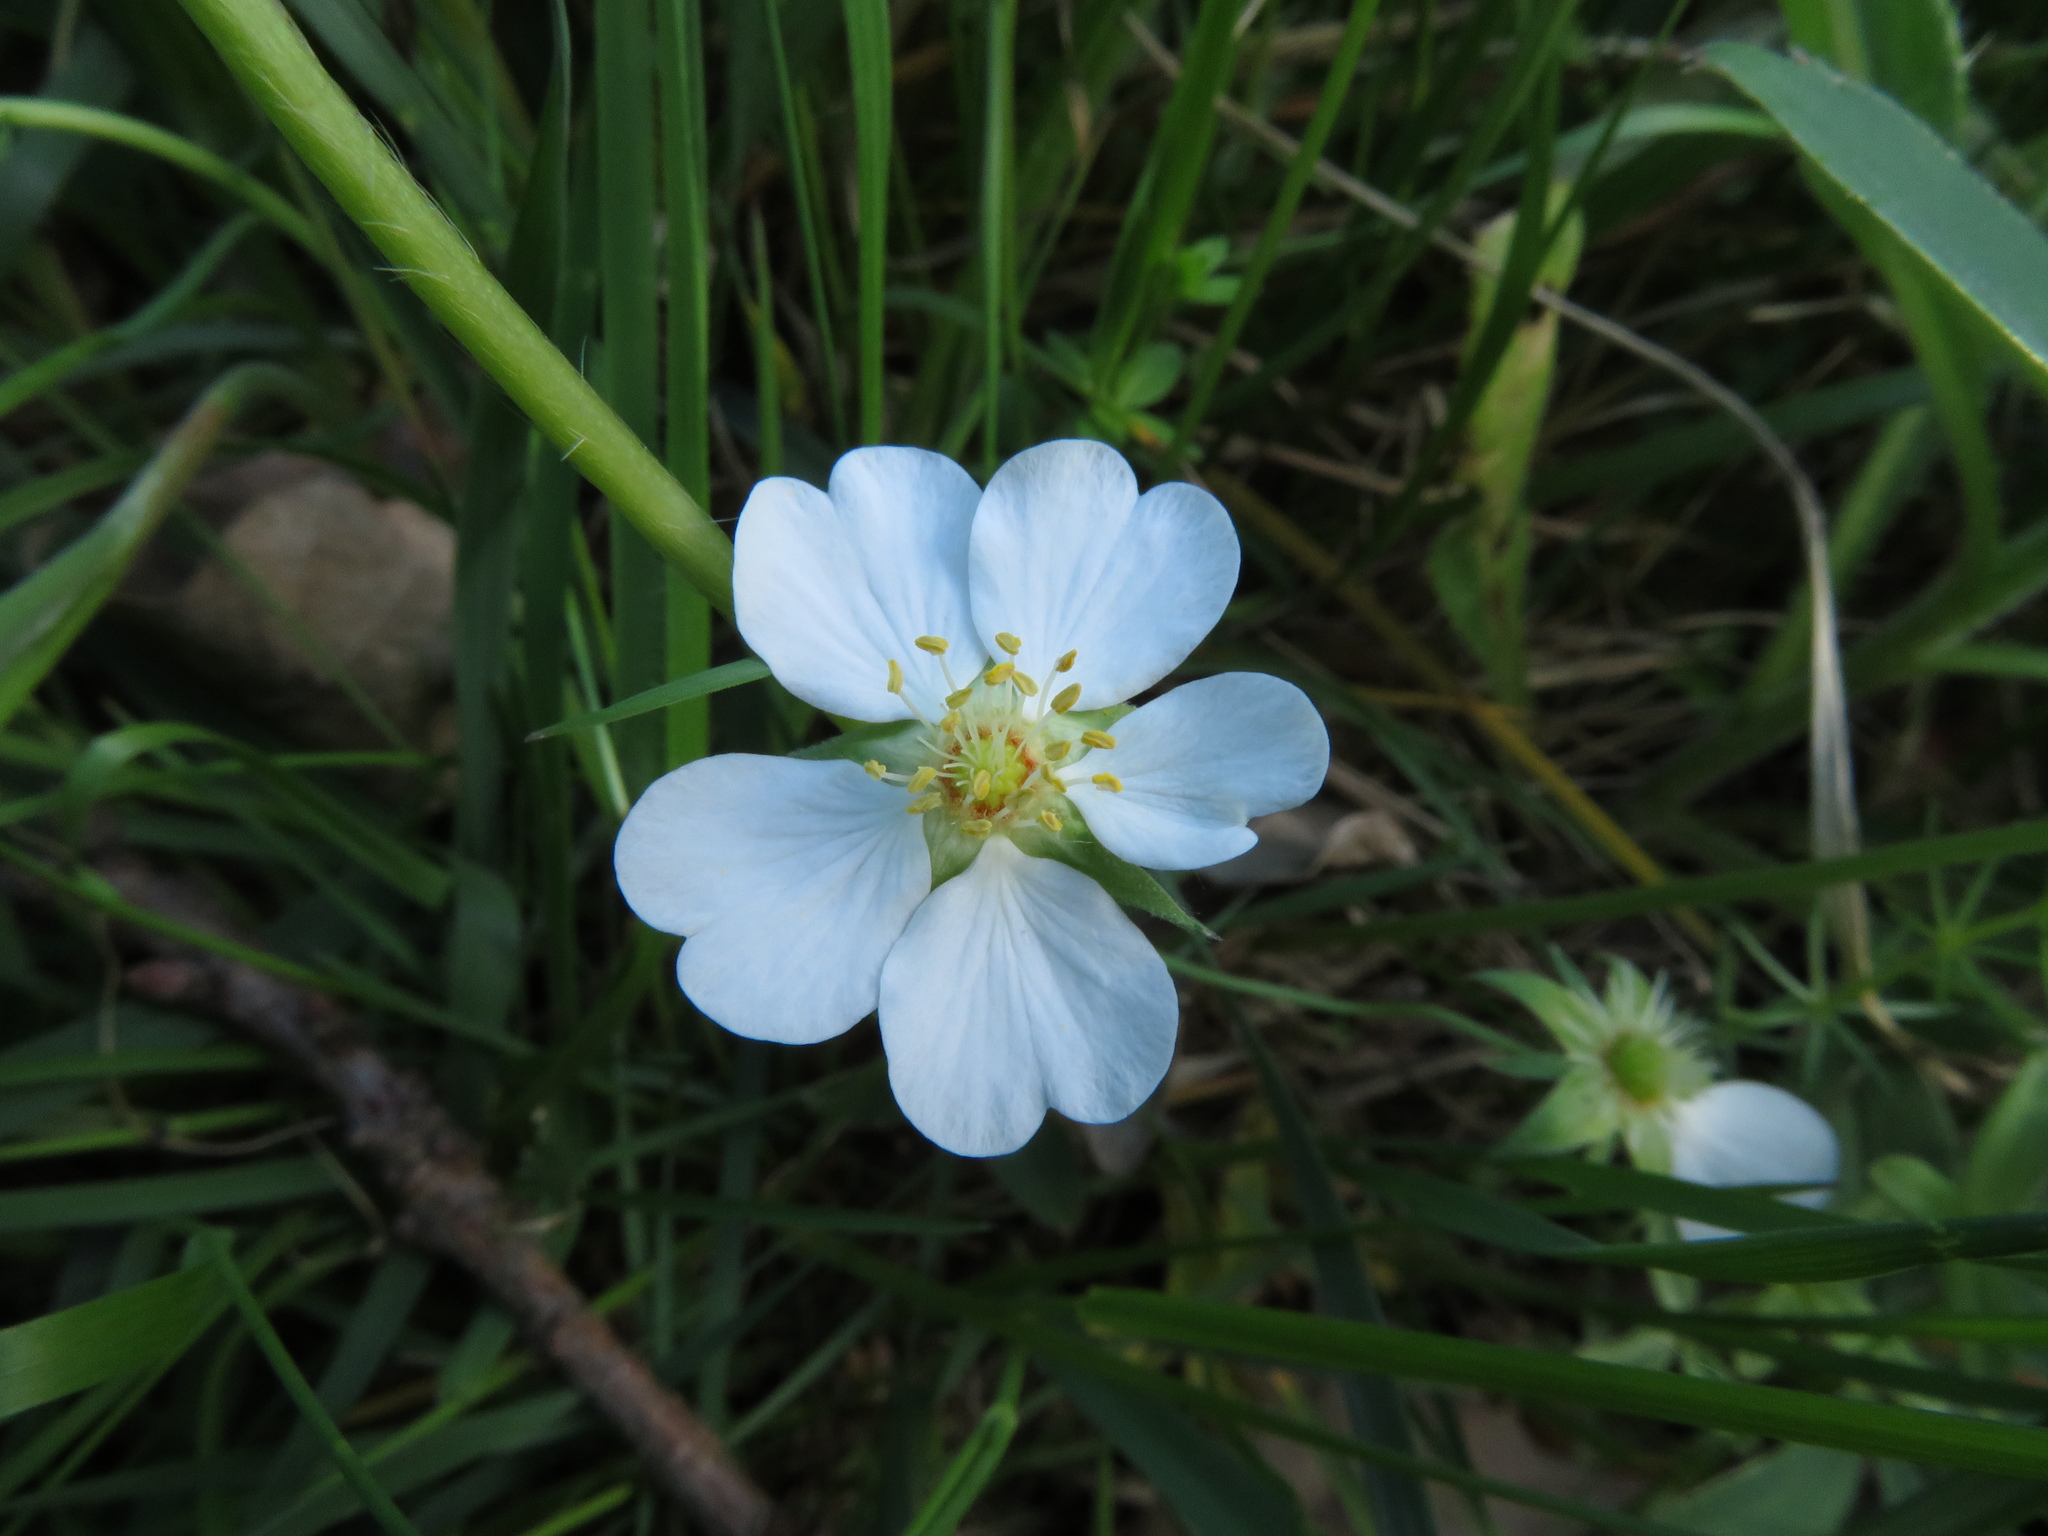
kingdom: Plantae
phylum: Tracheophyta
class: Magnoliopsida
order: Rosales
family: Rosaceae
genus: Potentilla
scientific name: Potentilla alba
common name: White cinquefoil
